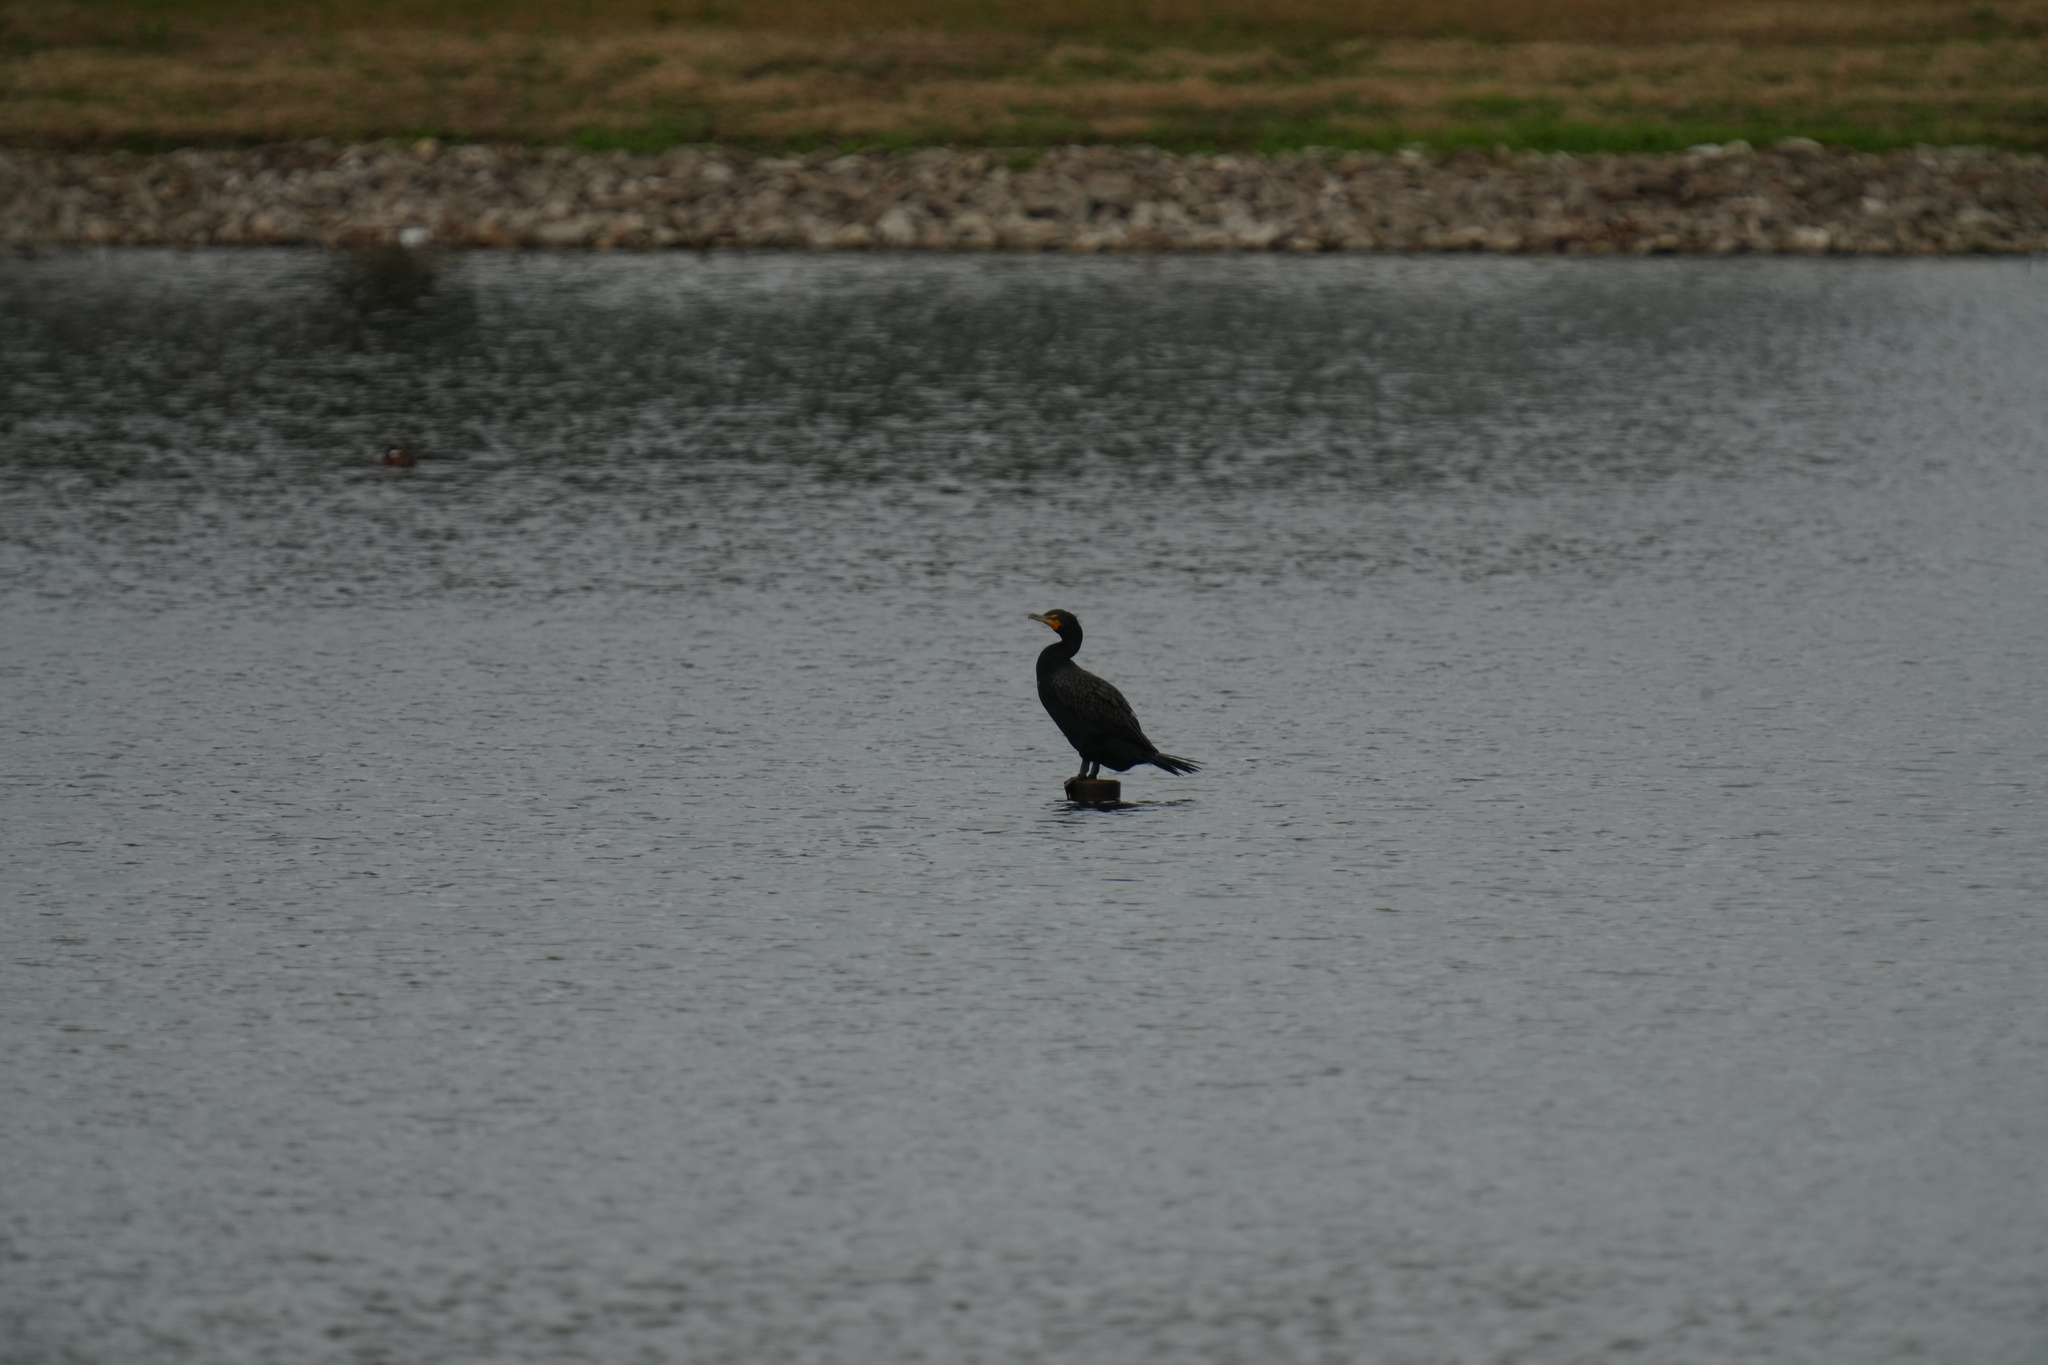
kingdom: Animalia
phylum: Chordata
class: Aves
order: Suliformes
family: Phalacrocoracidae
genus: Phalacrocorax
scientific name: Phalacrocorax auritus
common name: Double-crested cormorant
